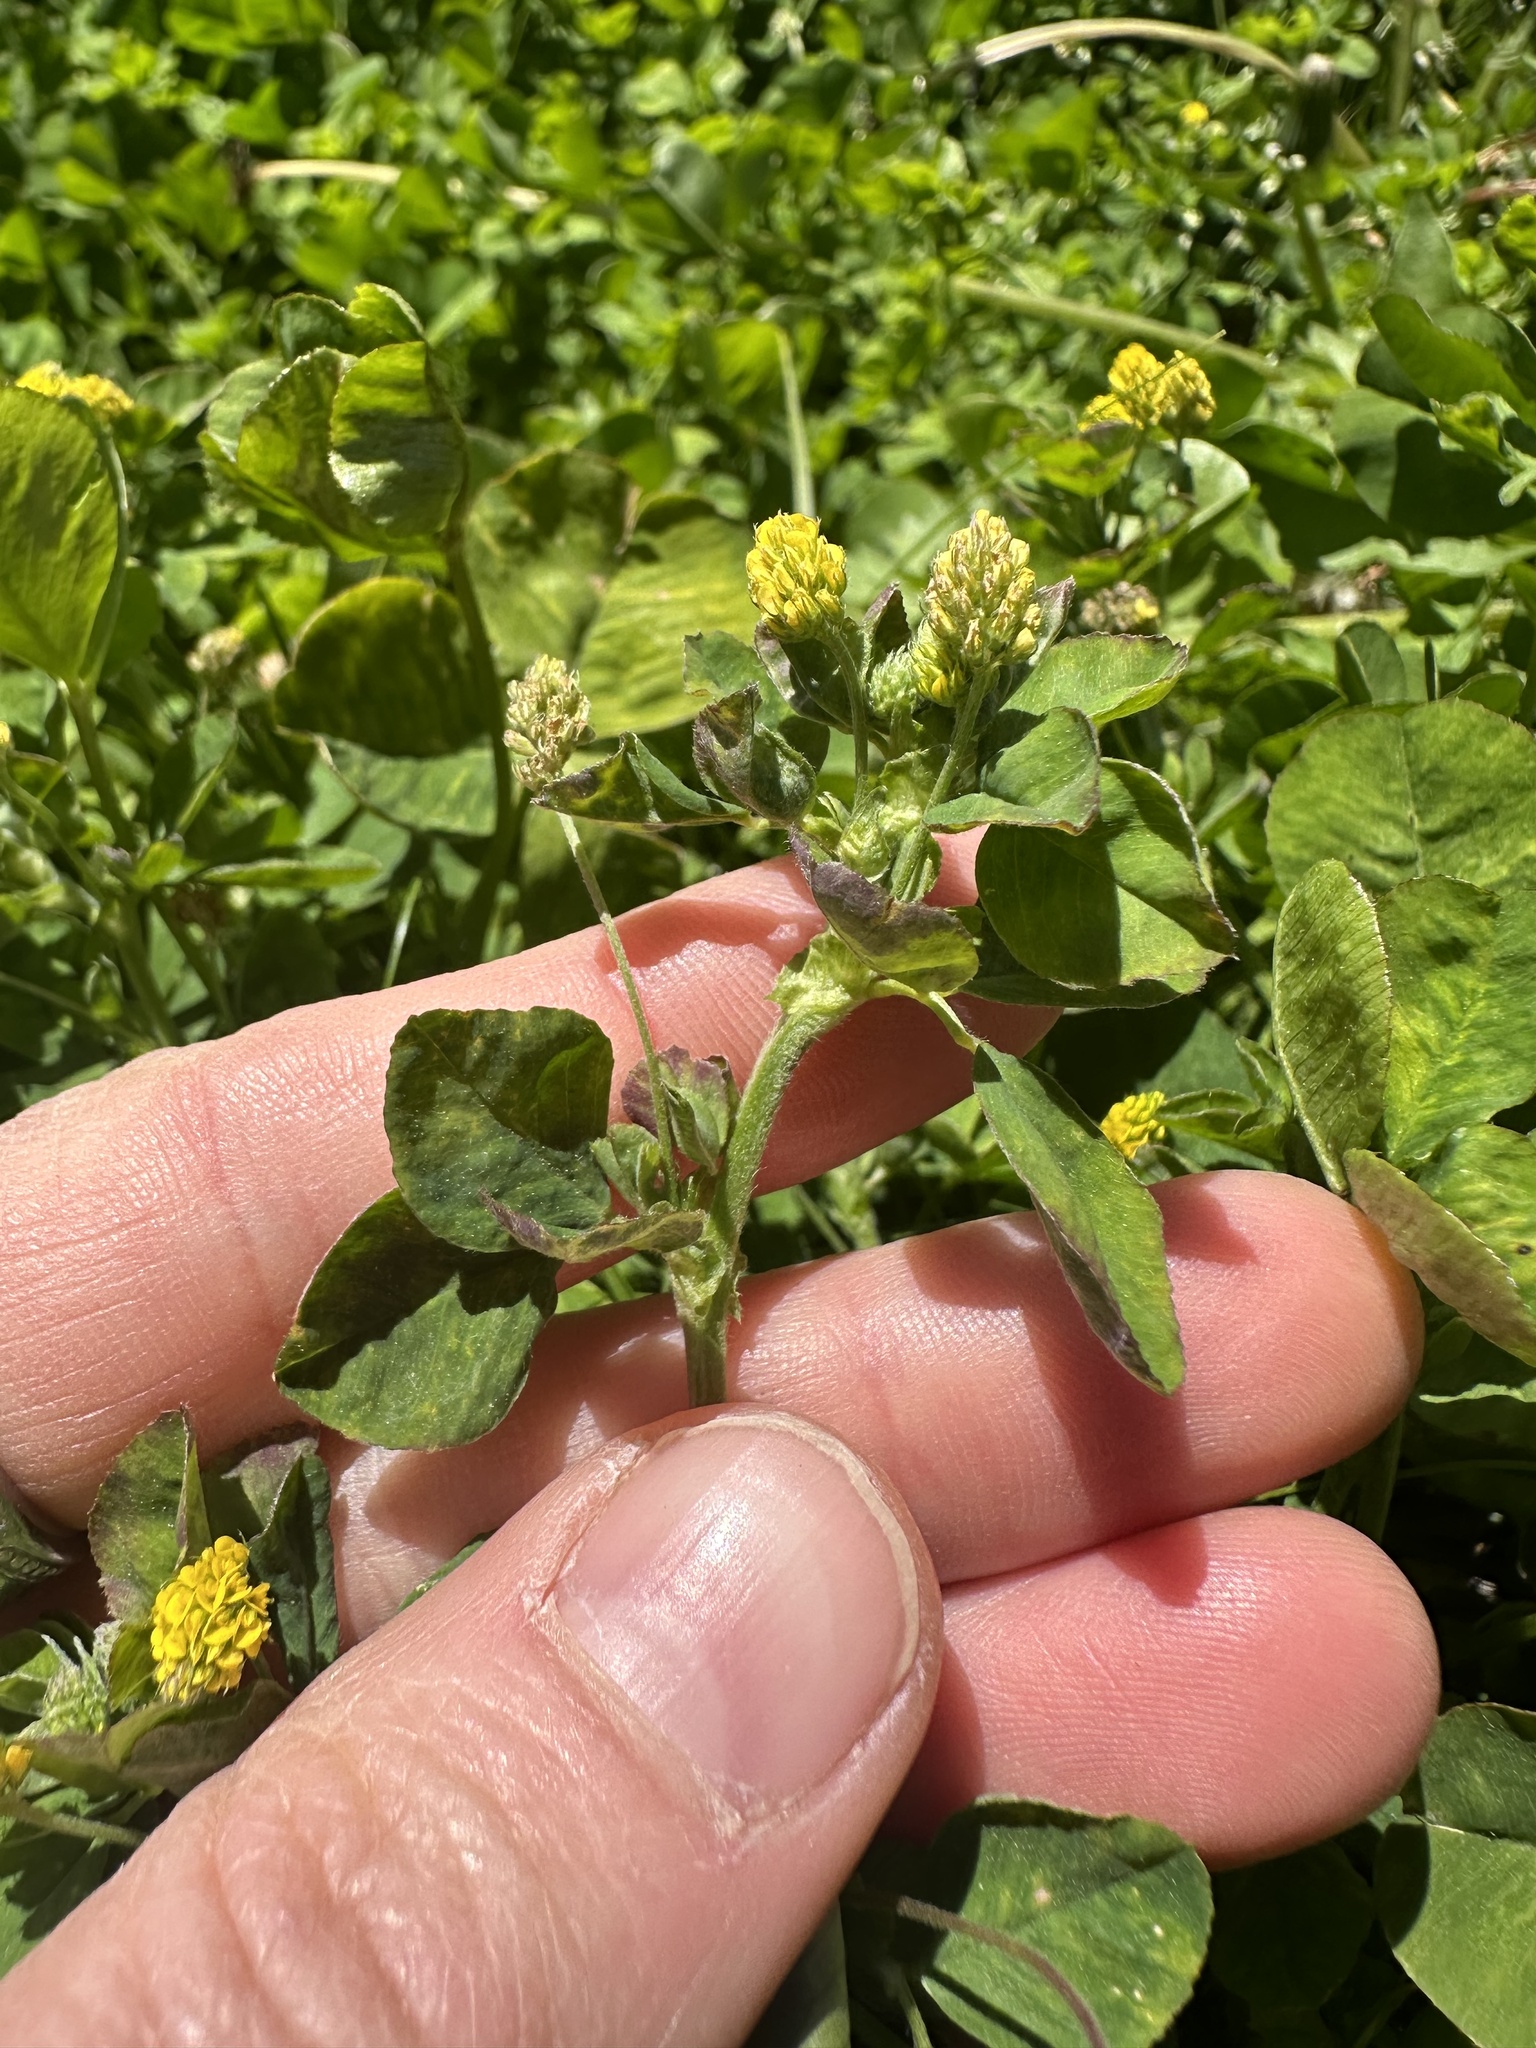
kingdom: Plantae
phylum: Tracheophyta
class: Magnoliopsida
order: Fabales
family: Fabaceae
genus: Medicago
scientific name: Medicago lupulina
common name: Black medick
